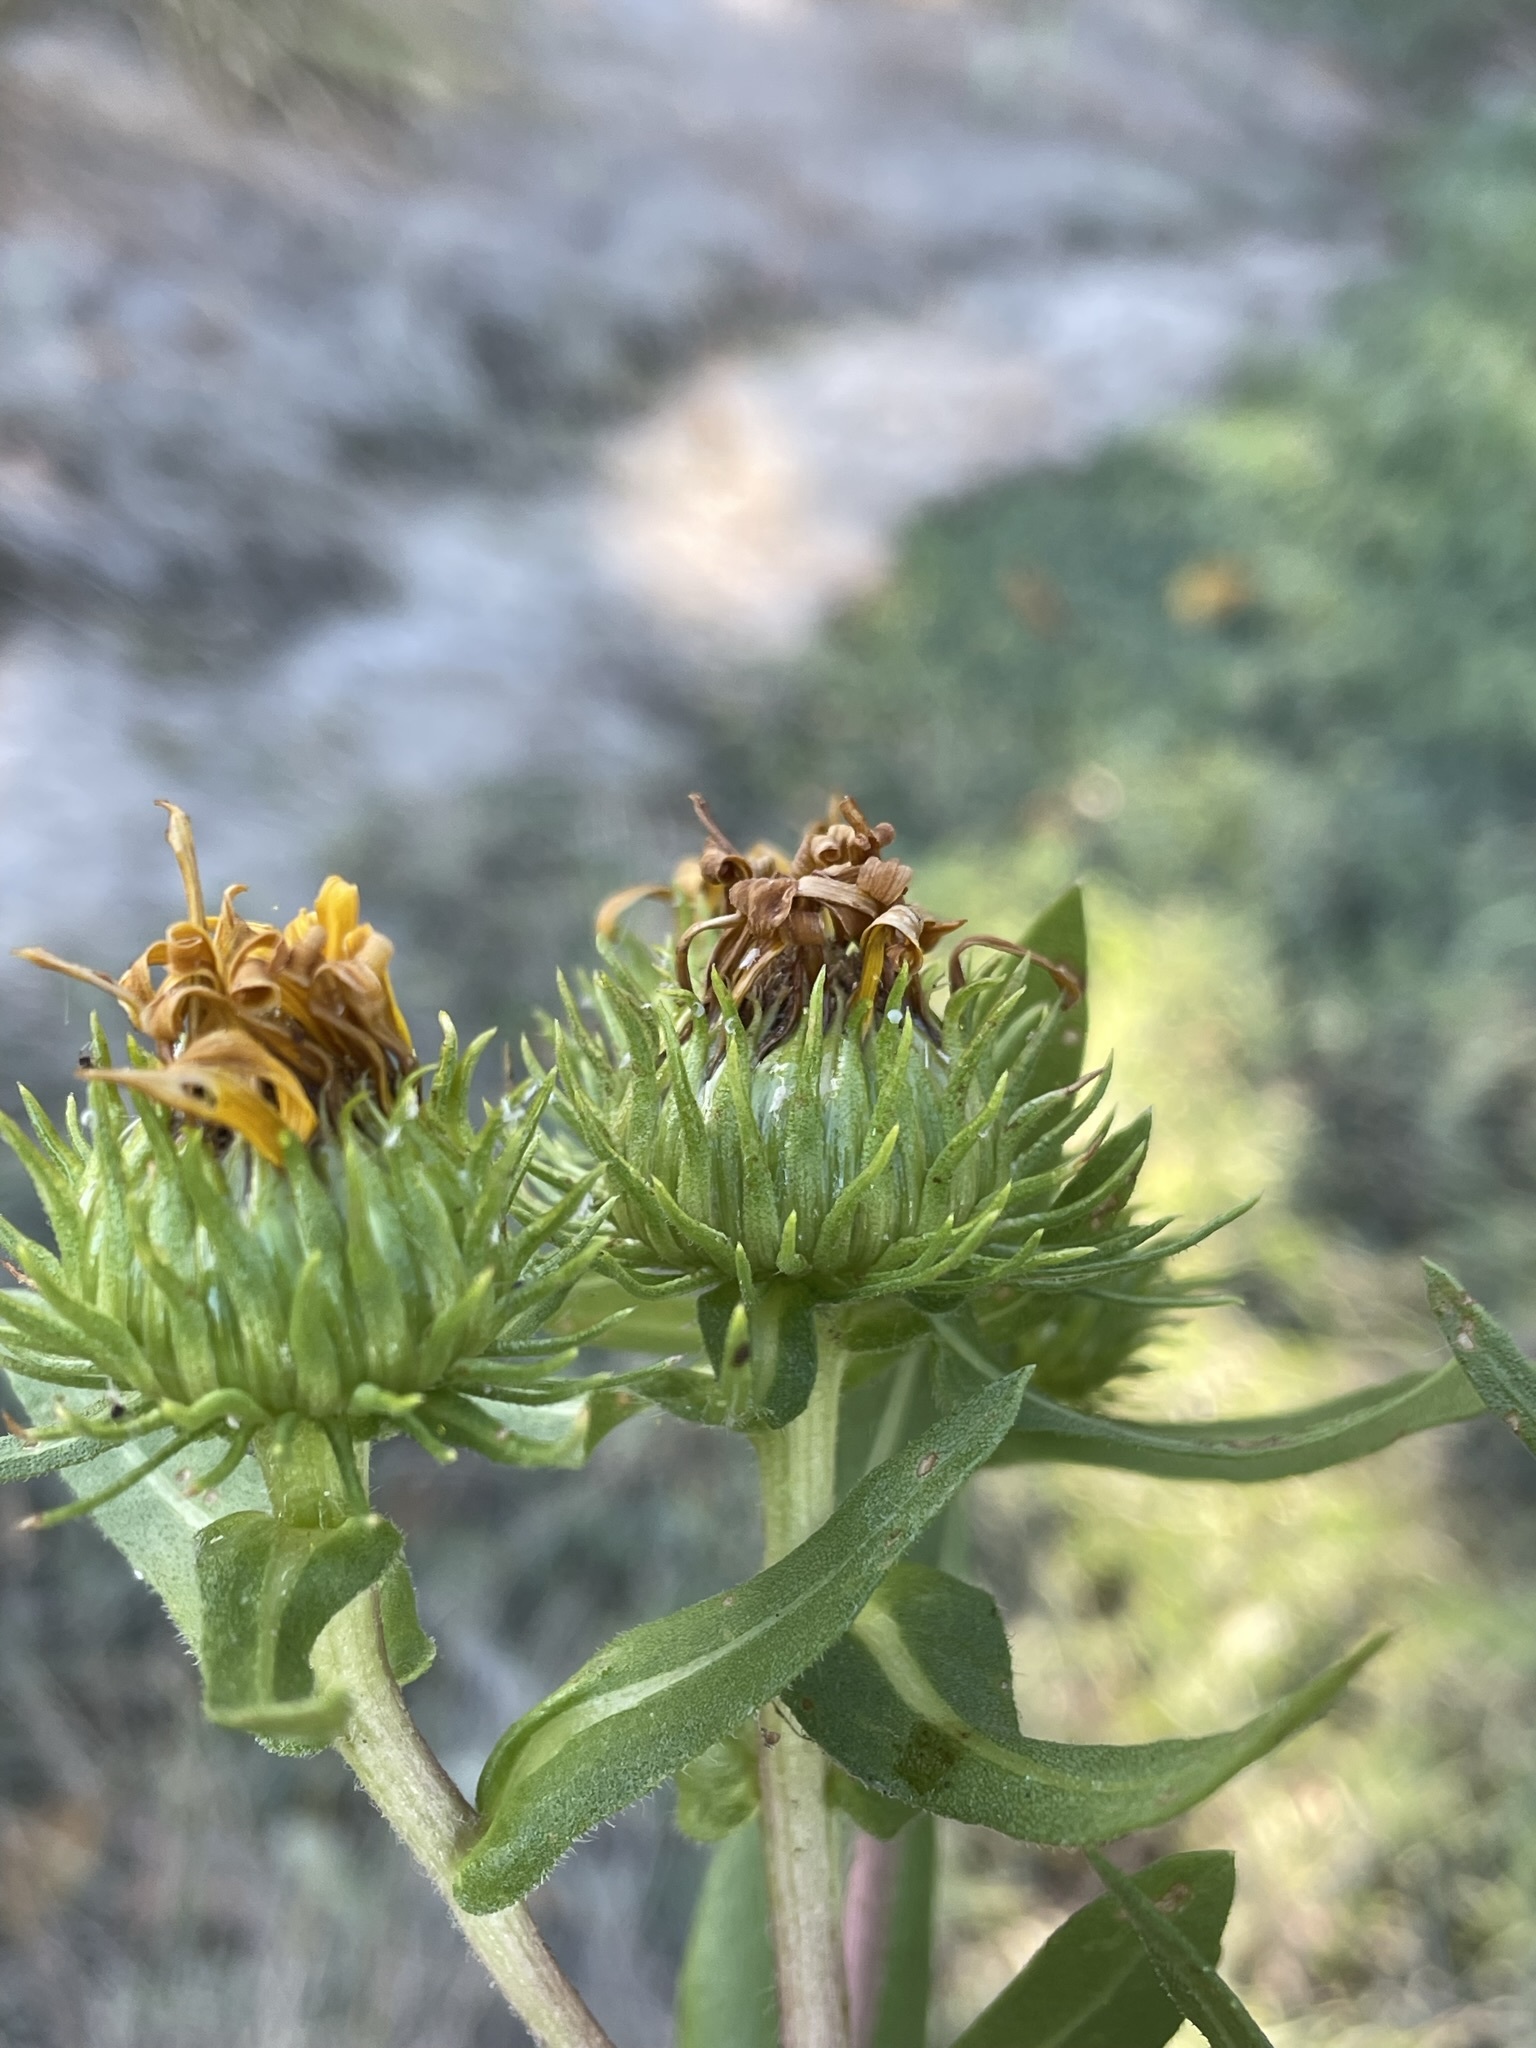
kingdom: Plantae
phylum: Tracheophyta
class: Magnoliopsida
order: Asterales
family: Asteraceae
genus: Grindelia
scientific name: Grindelia integrifolia
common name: Puget sound gumweed
